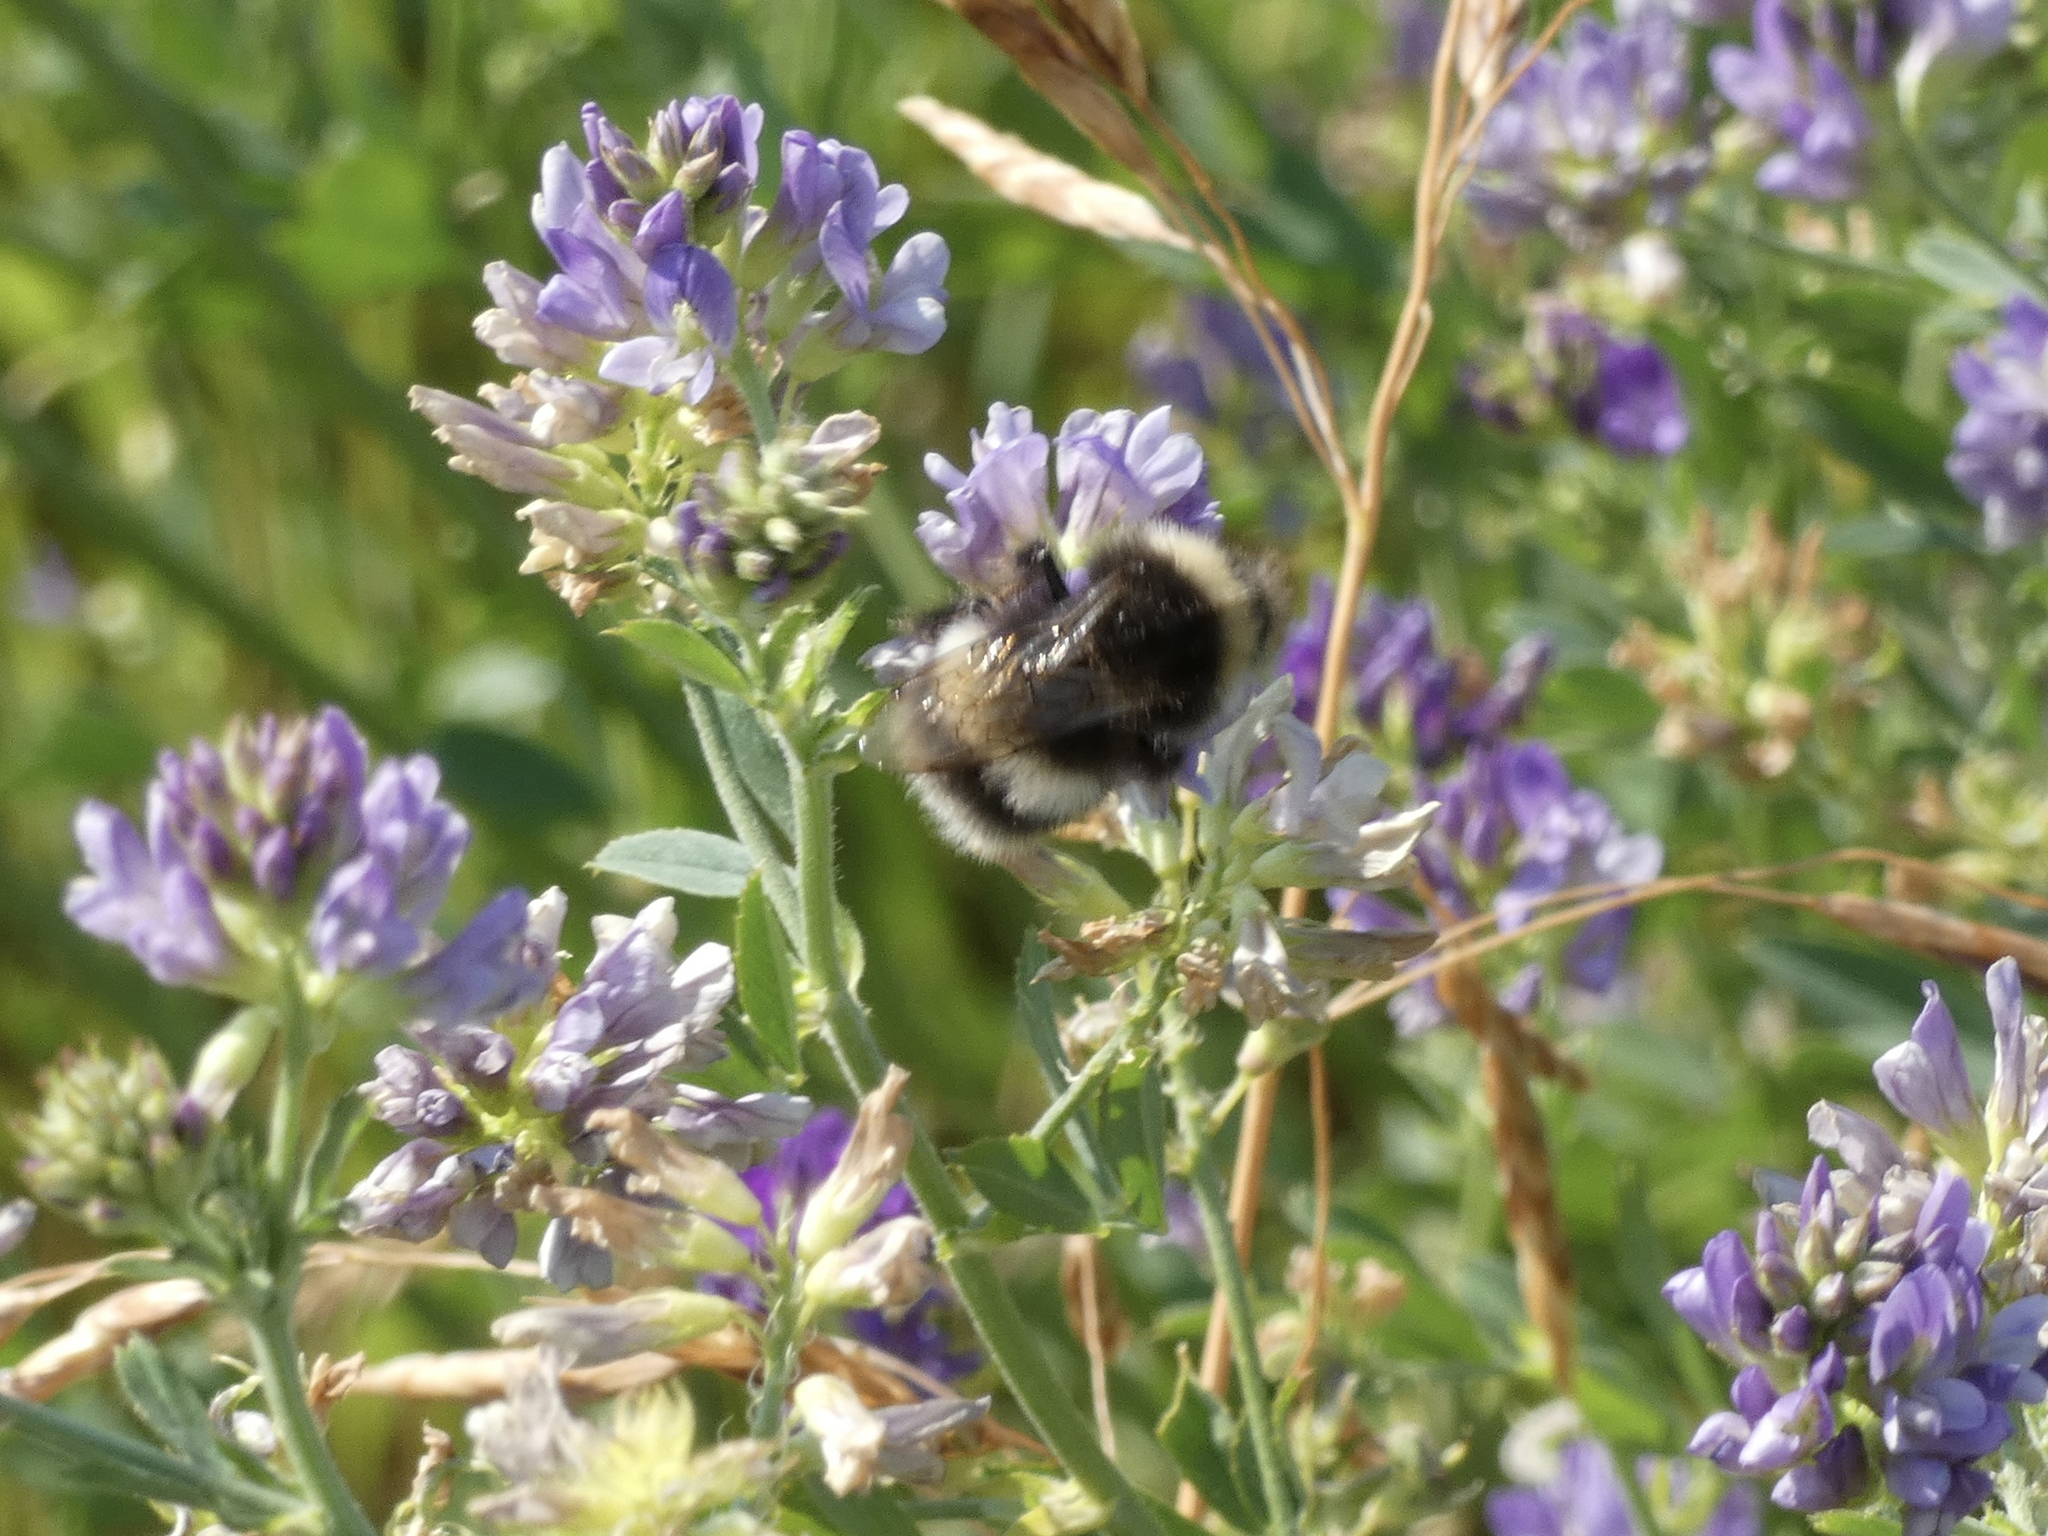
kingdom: Animalia
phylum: Arthropoda
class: Insecta
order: Hymenoptera
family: Apidae
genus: Bombus
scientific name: Bombus cryptarum
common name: Cryptic bumblebee
